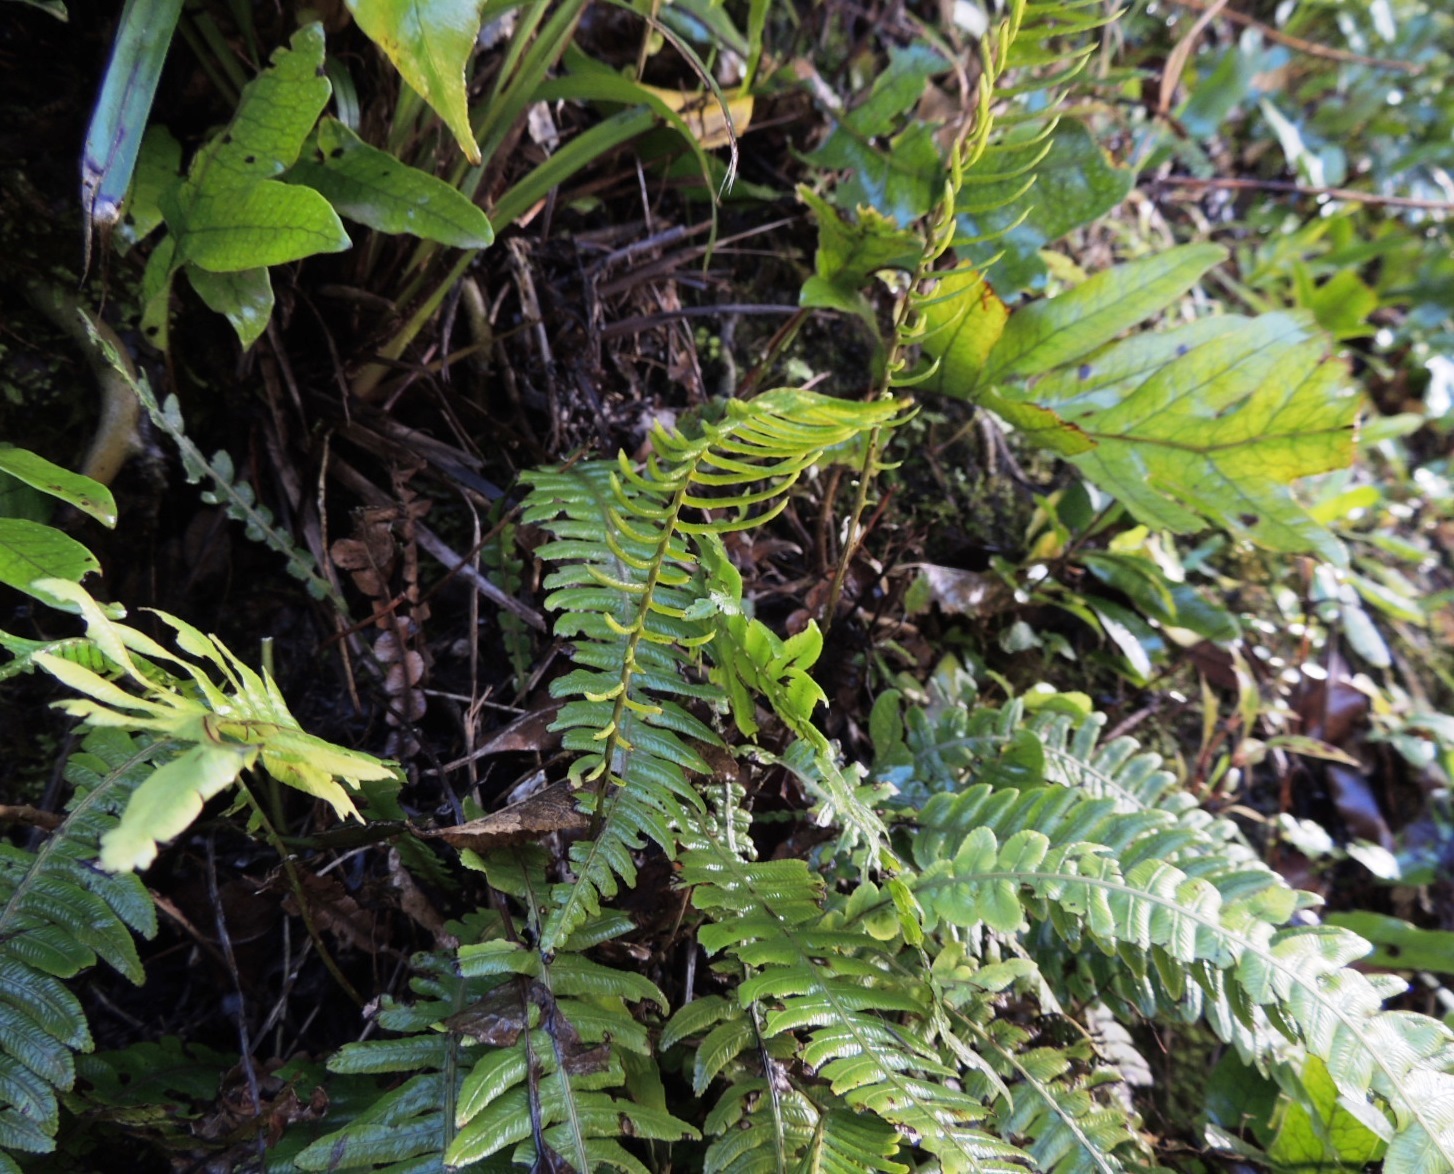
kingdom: Plantae
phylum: Tracheophyta
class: Polypodiopsida
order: Polypodiales
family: Blechnaceae
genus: Austroblechnum
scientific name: Austroblechnum lanceolatum
